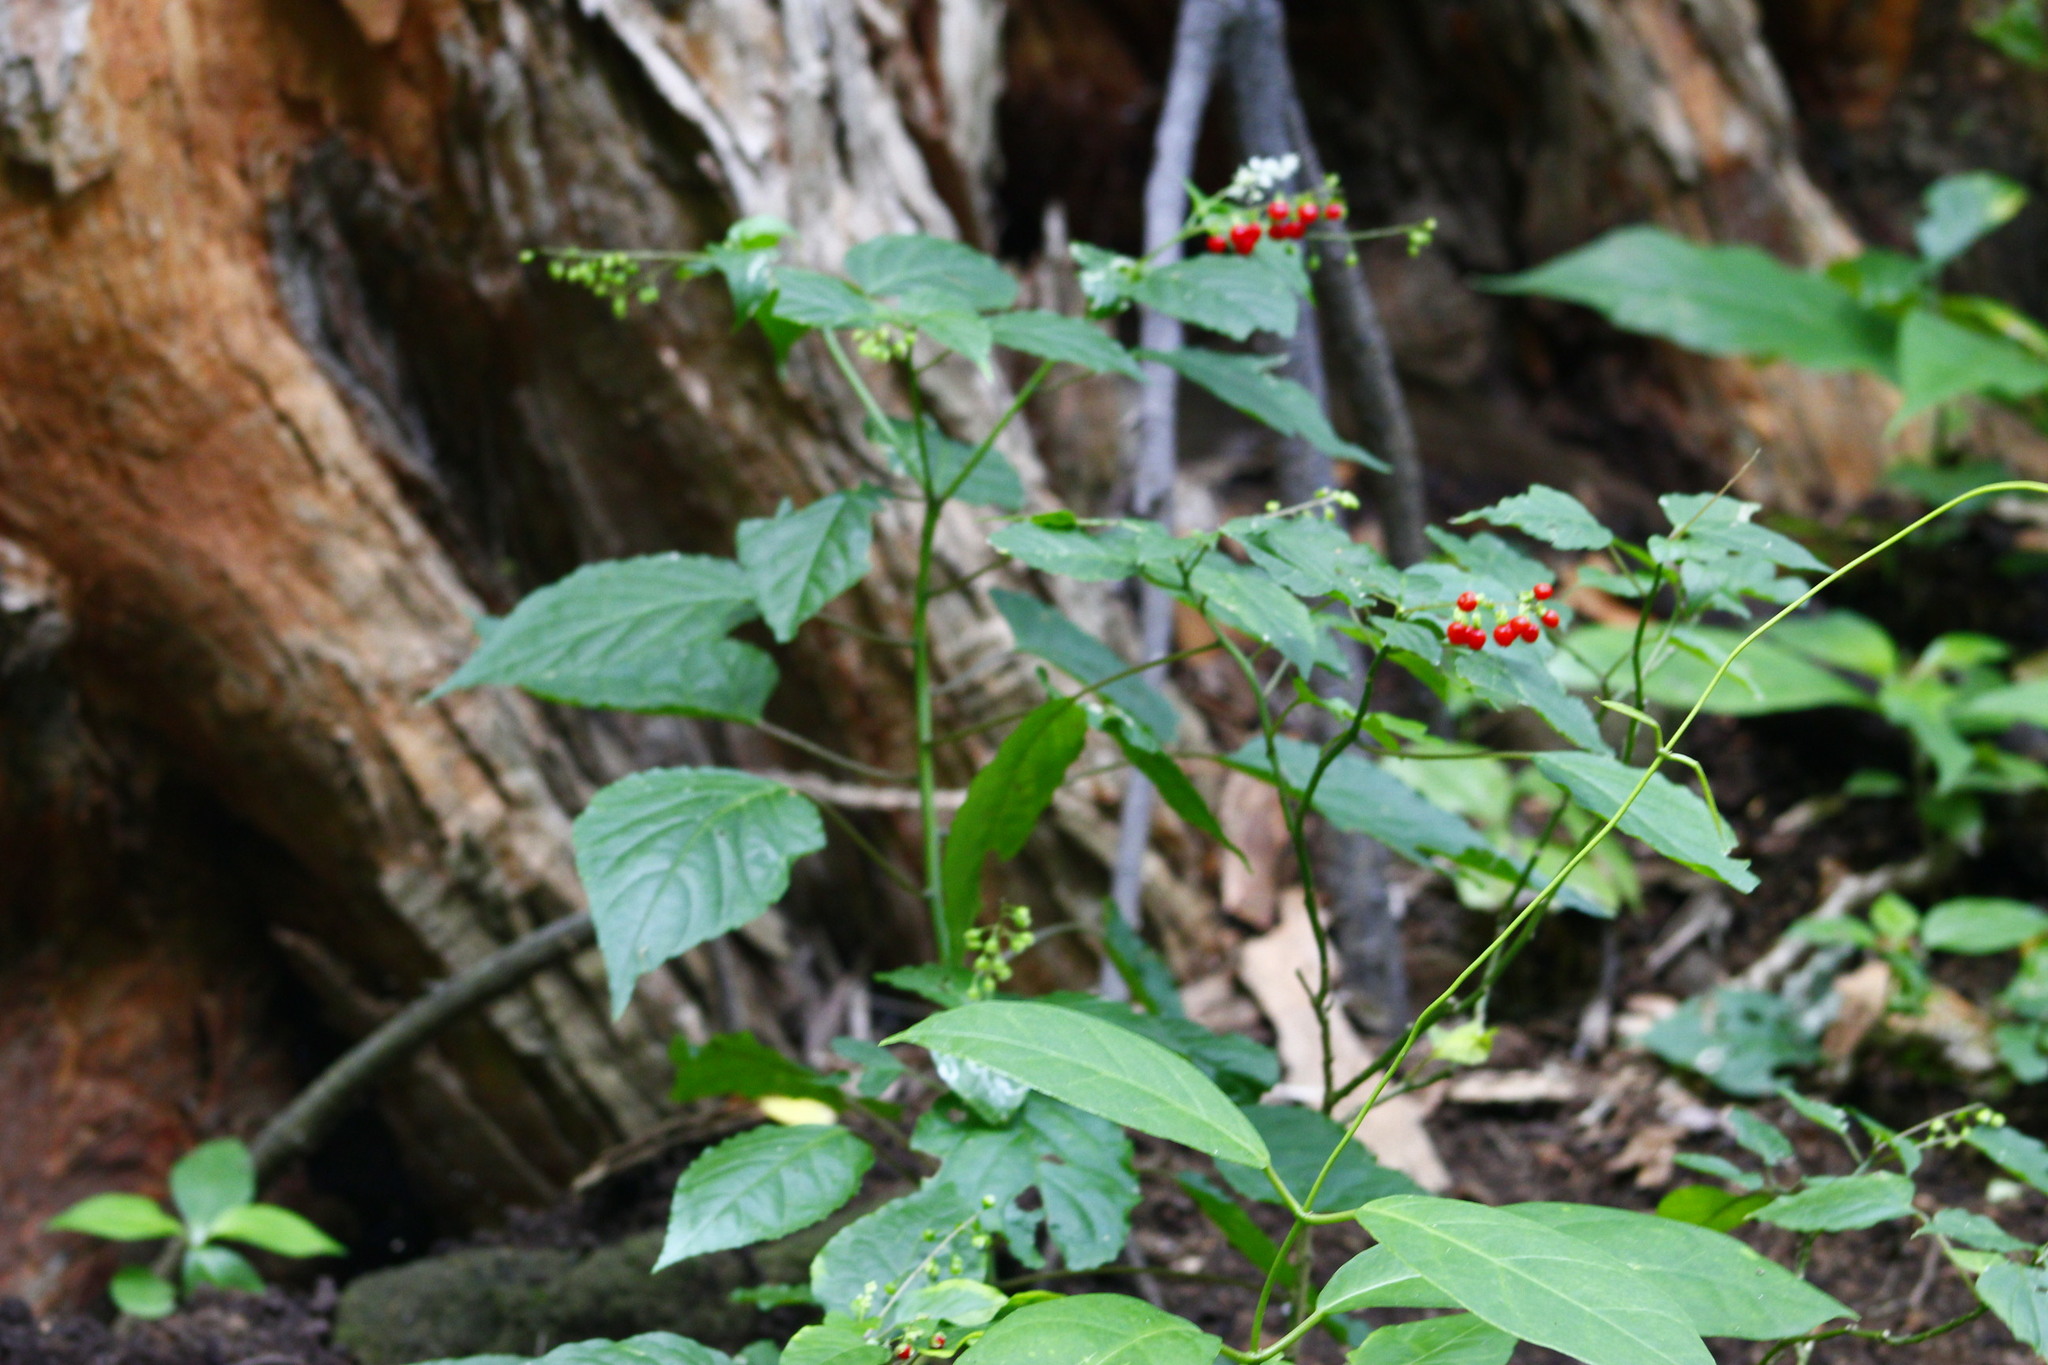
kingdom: Plantae
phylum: Tracheophyta
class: Magnoliopsida
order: Caryophyllales
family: Phytolaccaceae
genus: Rivina
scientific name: Rivina humilis
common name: Rougeplant
